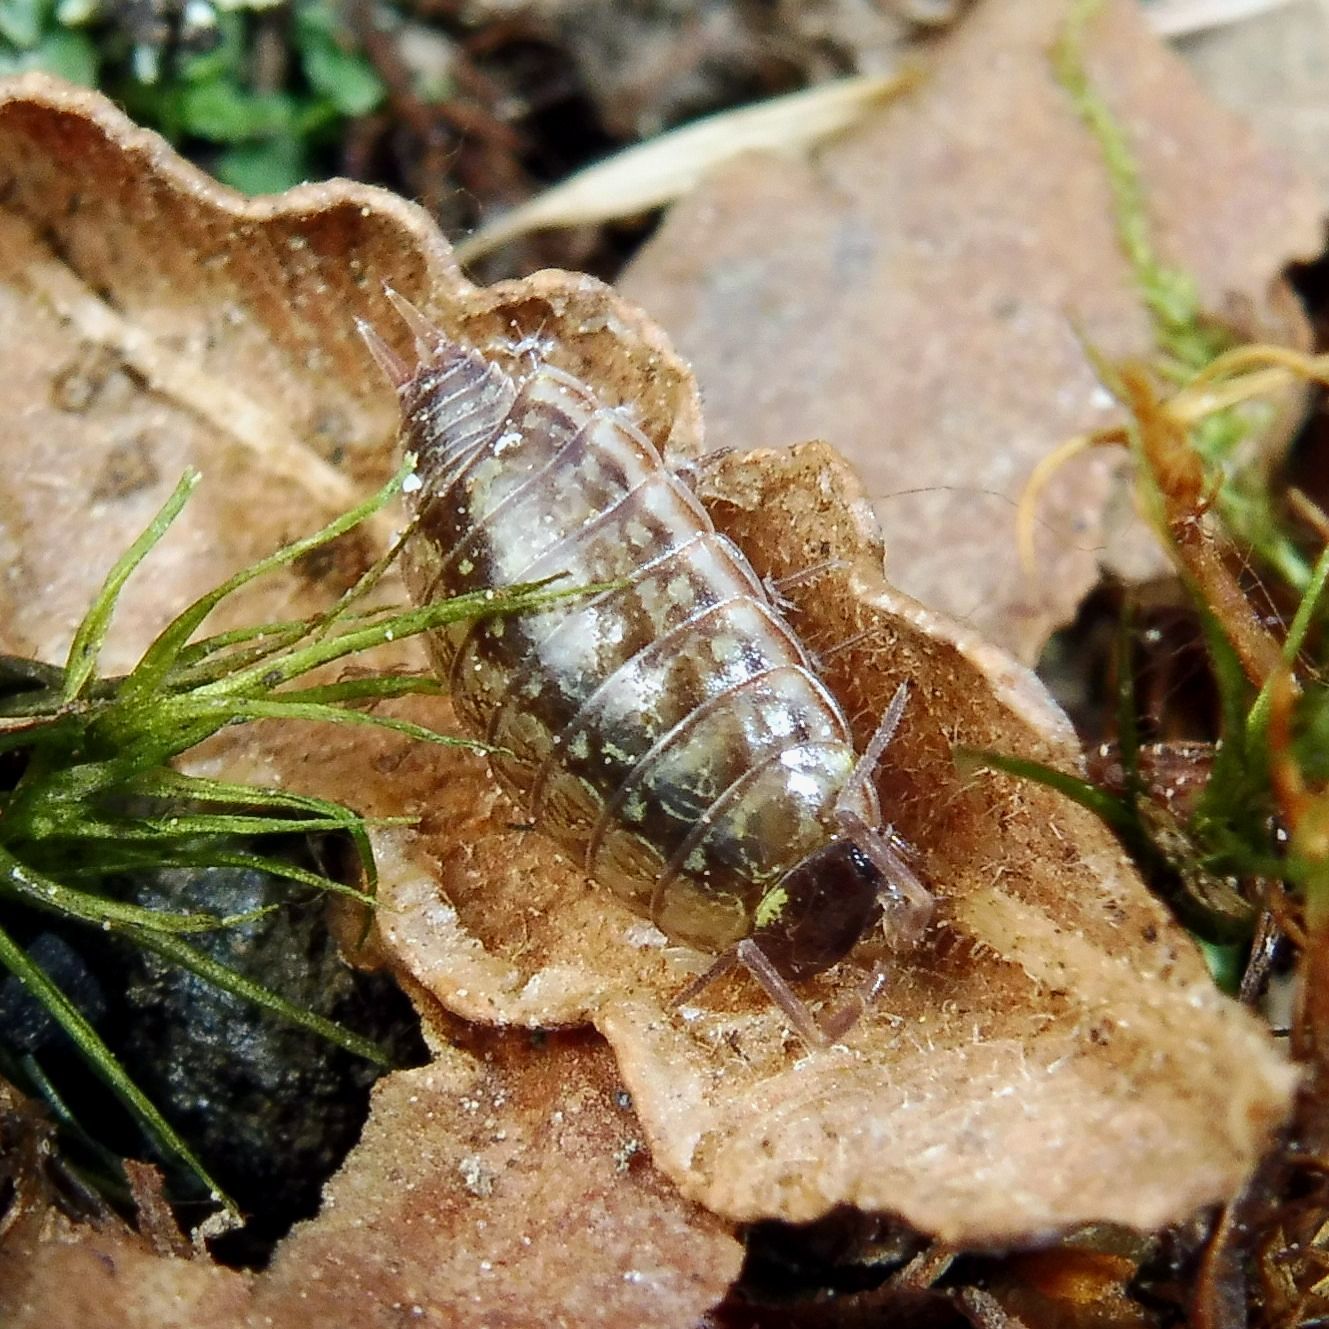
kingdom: Animalia
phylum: Arthropoda
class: Malacostraca
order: Isopoda
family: Philosciidae
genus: Philoscia
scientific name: Philoscia muscorum
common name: Common striped woodlouse
